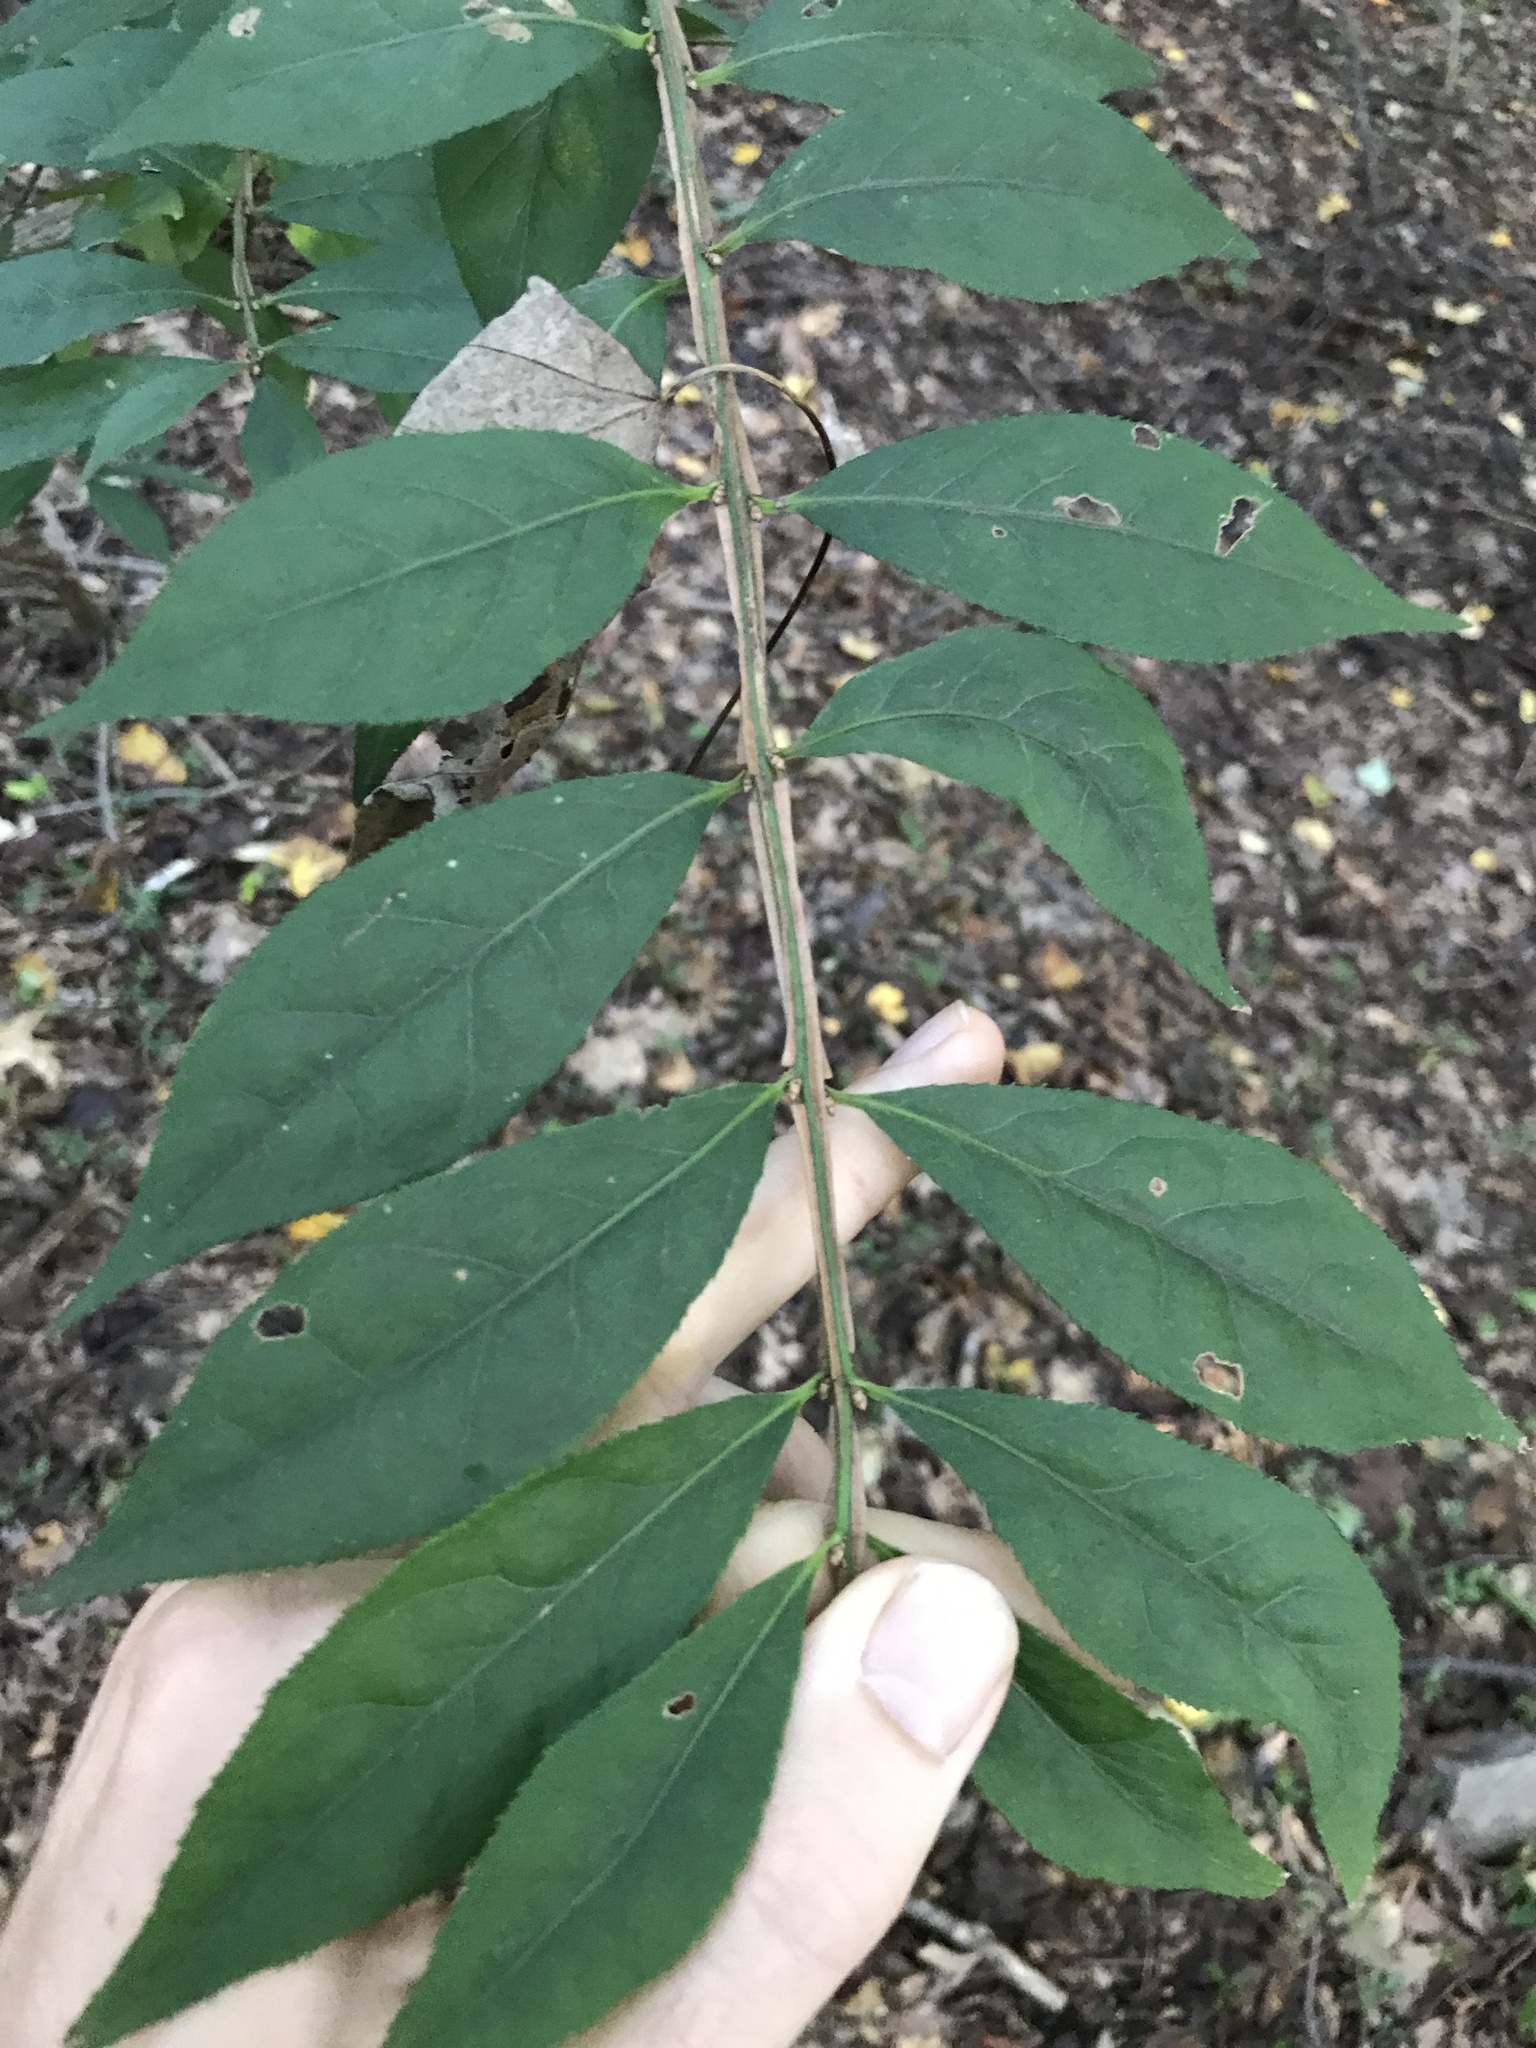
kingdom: Plantae
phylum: Tracheophyta
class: Magnoliopsida
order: Celastrales
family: Celastraceae
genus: Euonymus
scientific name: Euonymus alatus
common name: Winged euonymus
